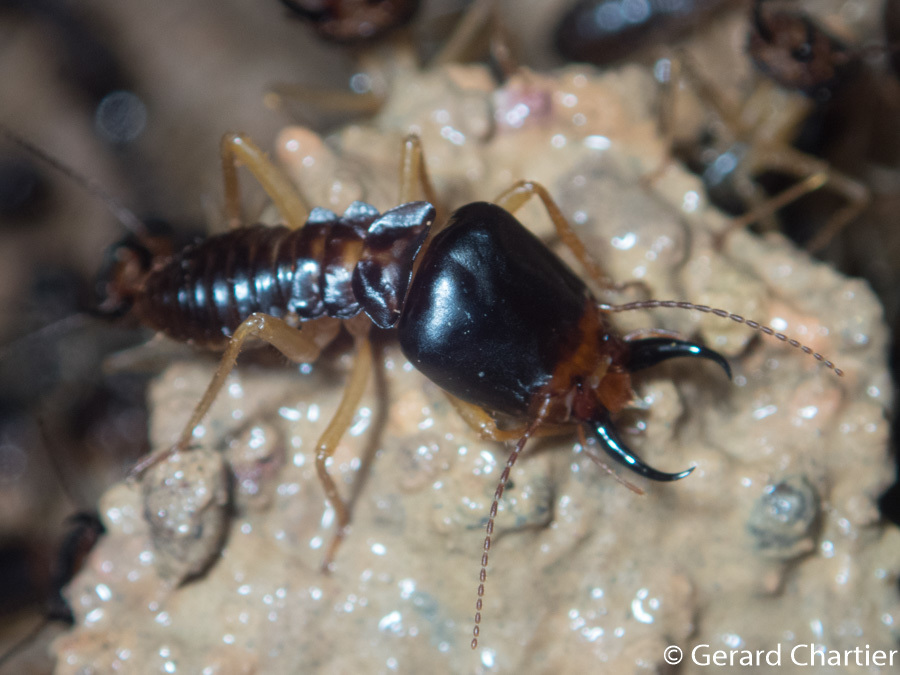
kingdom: Animalia
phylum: Arthropoda
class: Insecta
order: Blattodea
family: Termitidae
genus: Macrotermes
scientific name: Macrotermes carbonarius
